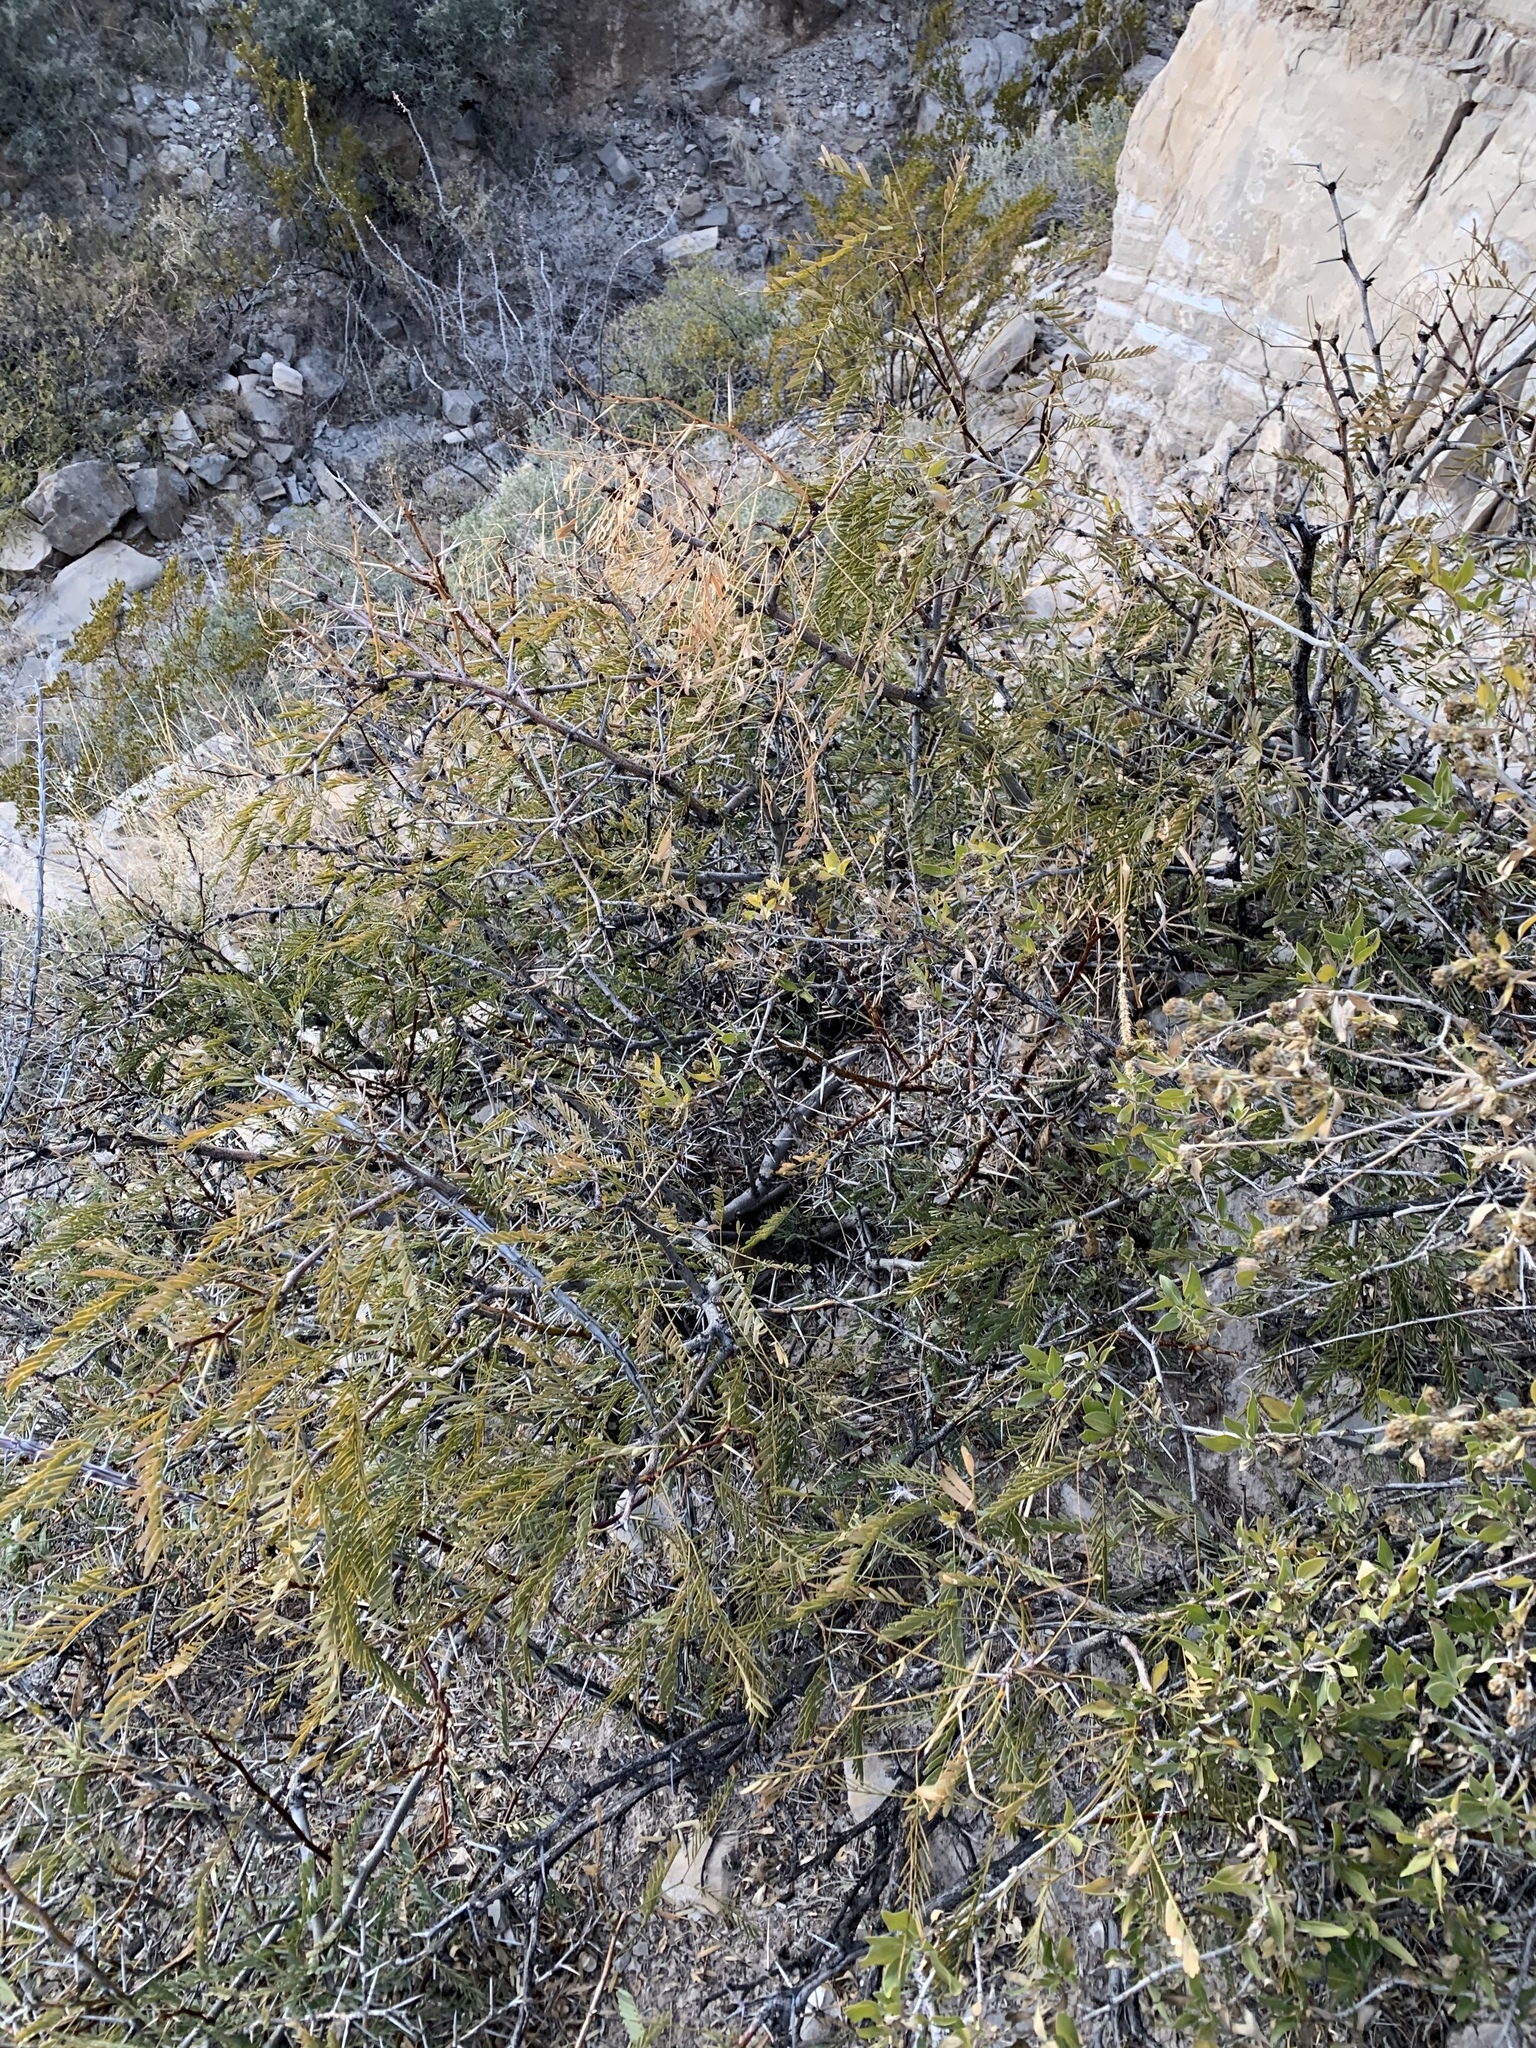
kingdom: Plantae
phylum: Tracheophyta
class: Magnoliopsida
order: Fabales
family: Fabaceae
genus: Prosopis
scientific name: Prosopis glandulosa
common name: Honey mesquite
